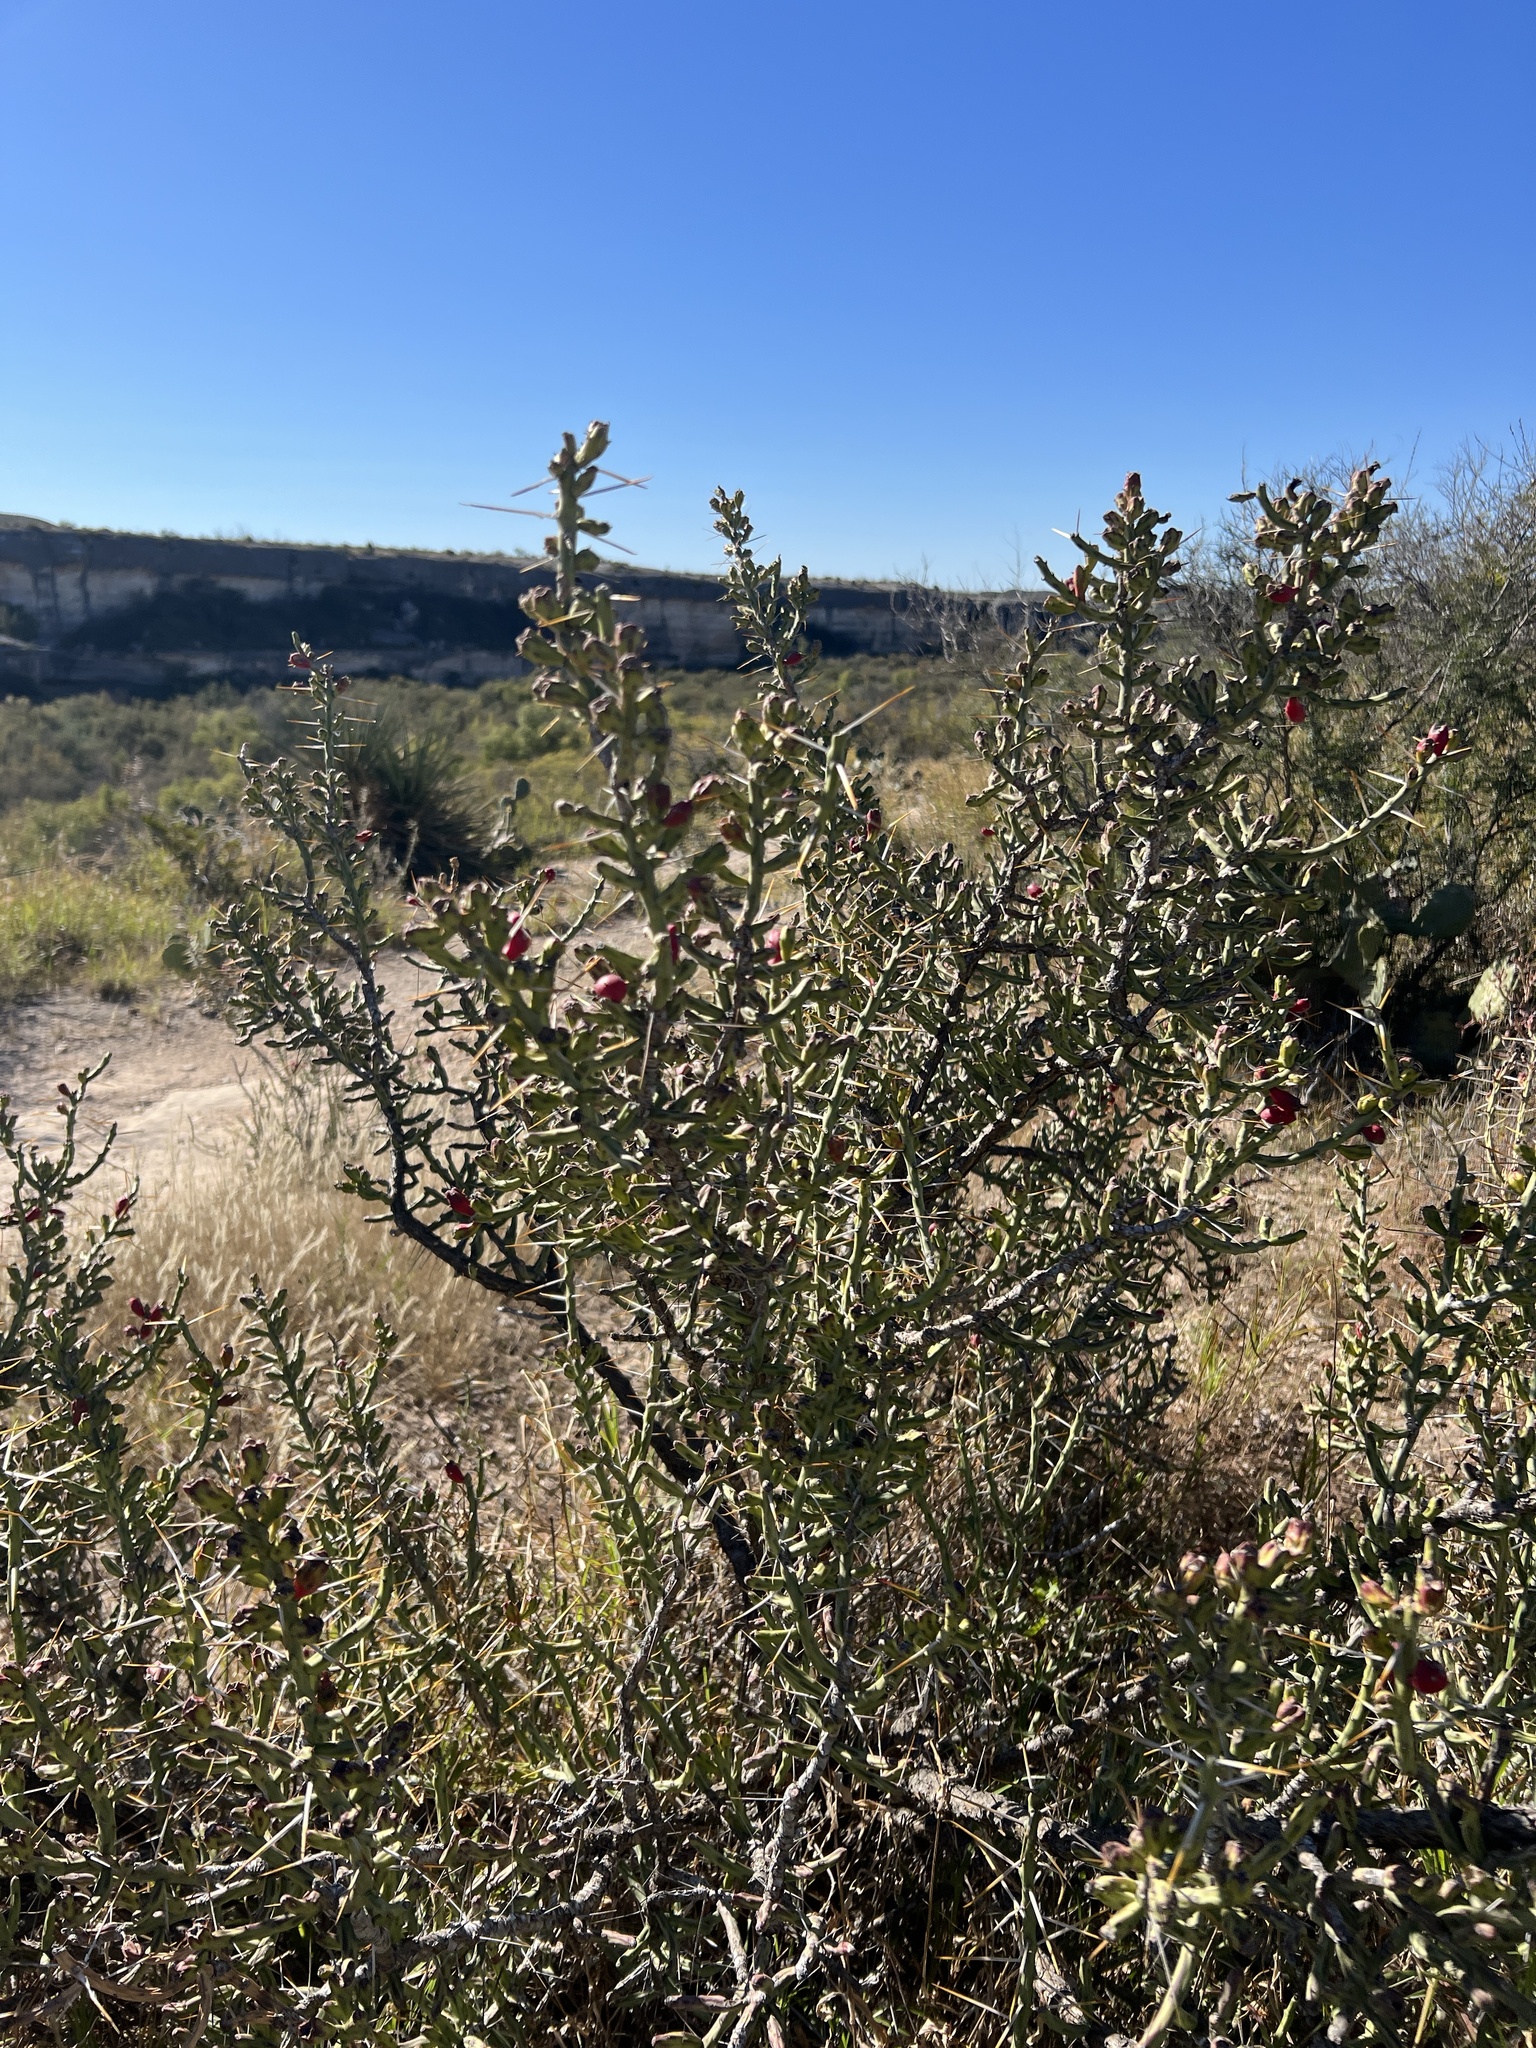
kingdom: Plantae
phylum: Tracheophyta
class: Magnoliopsida
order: Caryophyllales
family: Cactaceae
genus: Cylindropuntia
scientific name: Cylindropuntia leptocaulis
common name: Christmas cactus
